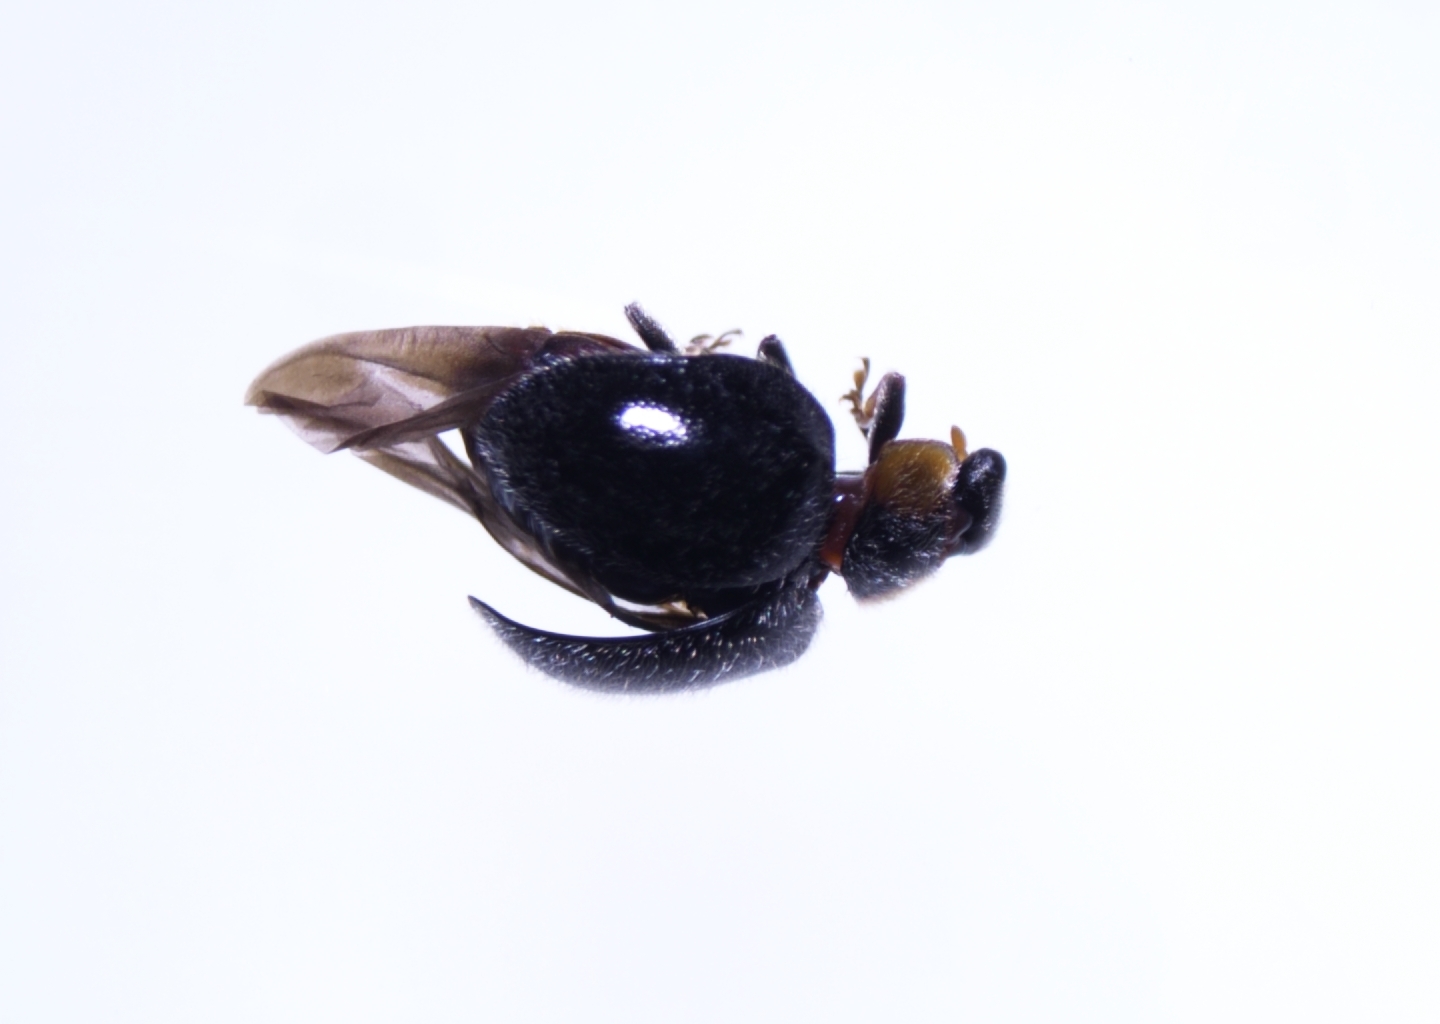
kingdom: Animalia
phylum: Arthropoda
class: Insecta
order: Coleoptera
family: Coccinellidae
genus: Scymnodes
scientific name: Scymnodes lividigaster
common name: Yellowshouldered lady beetle
